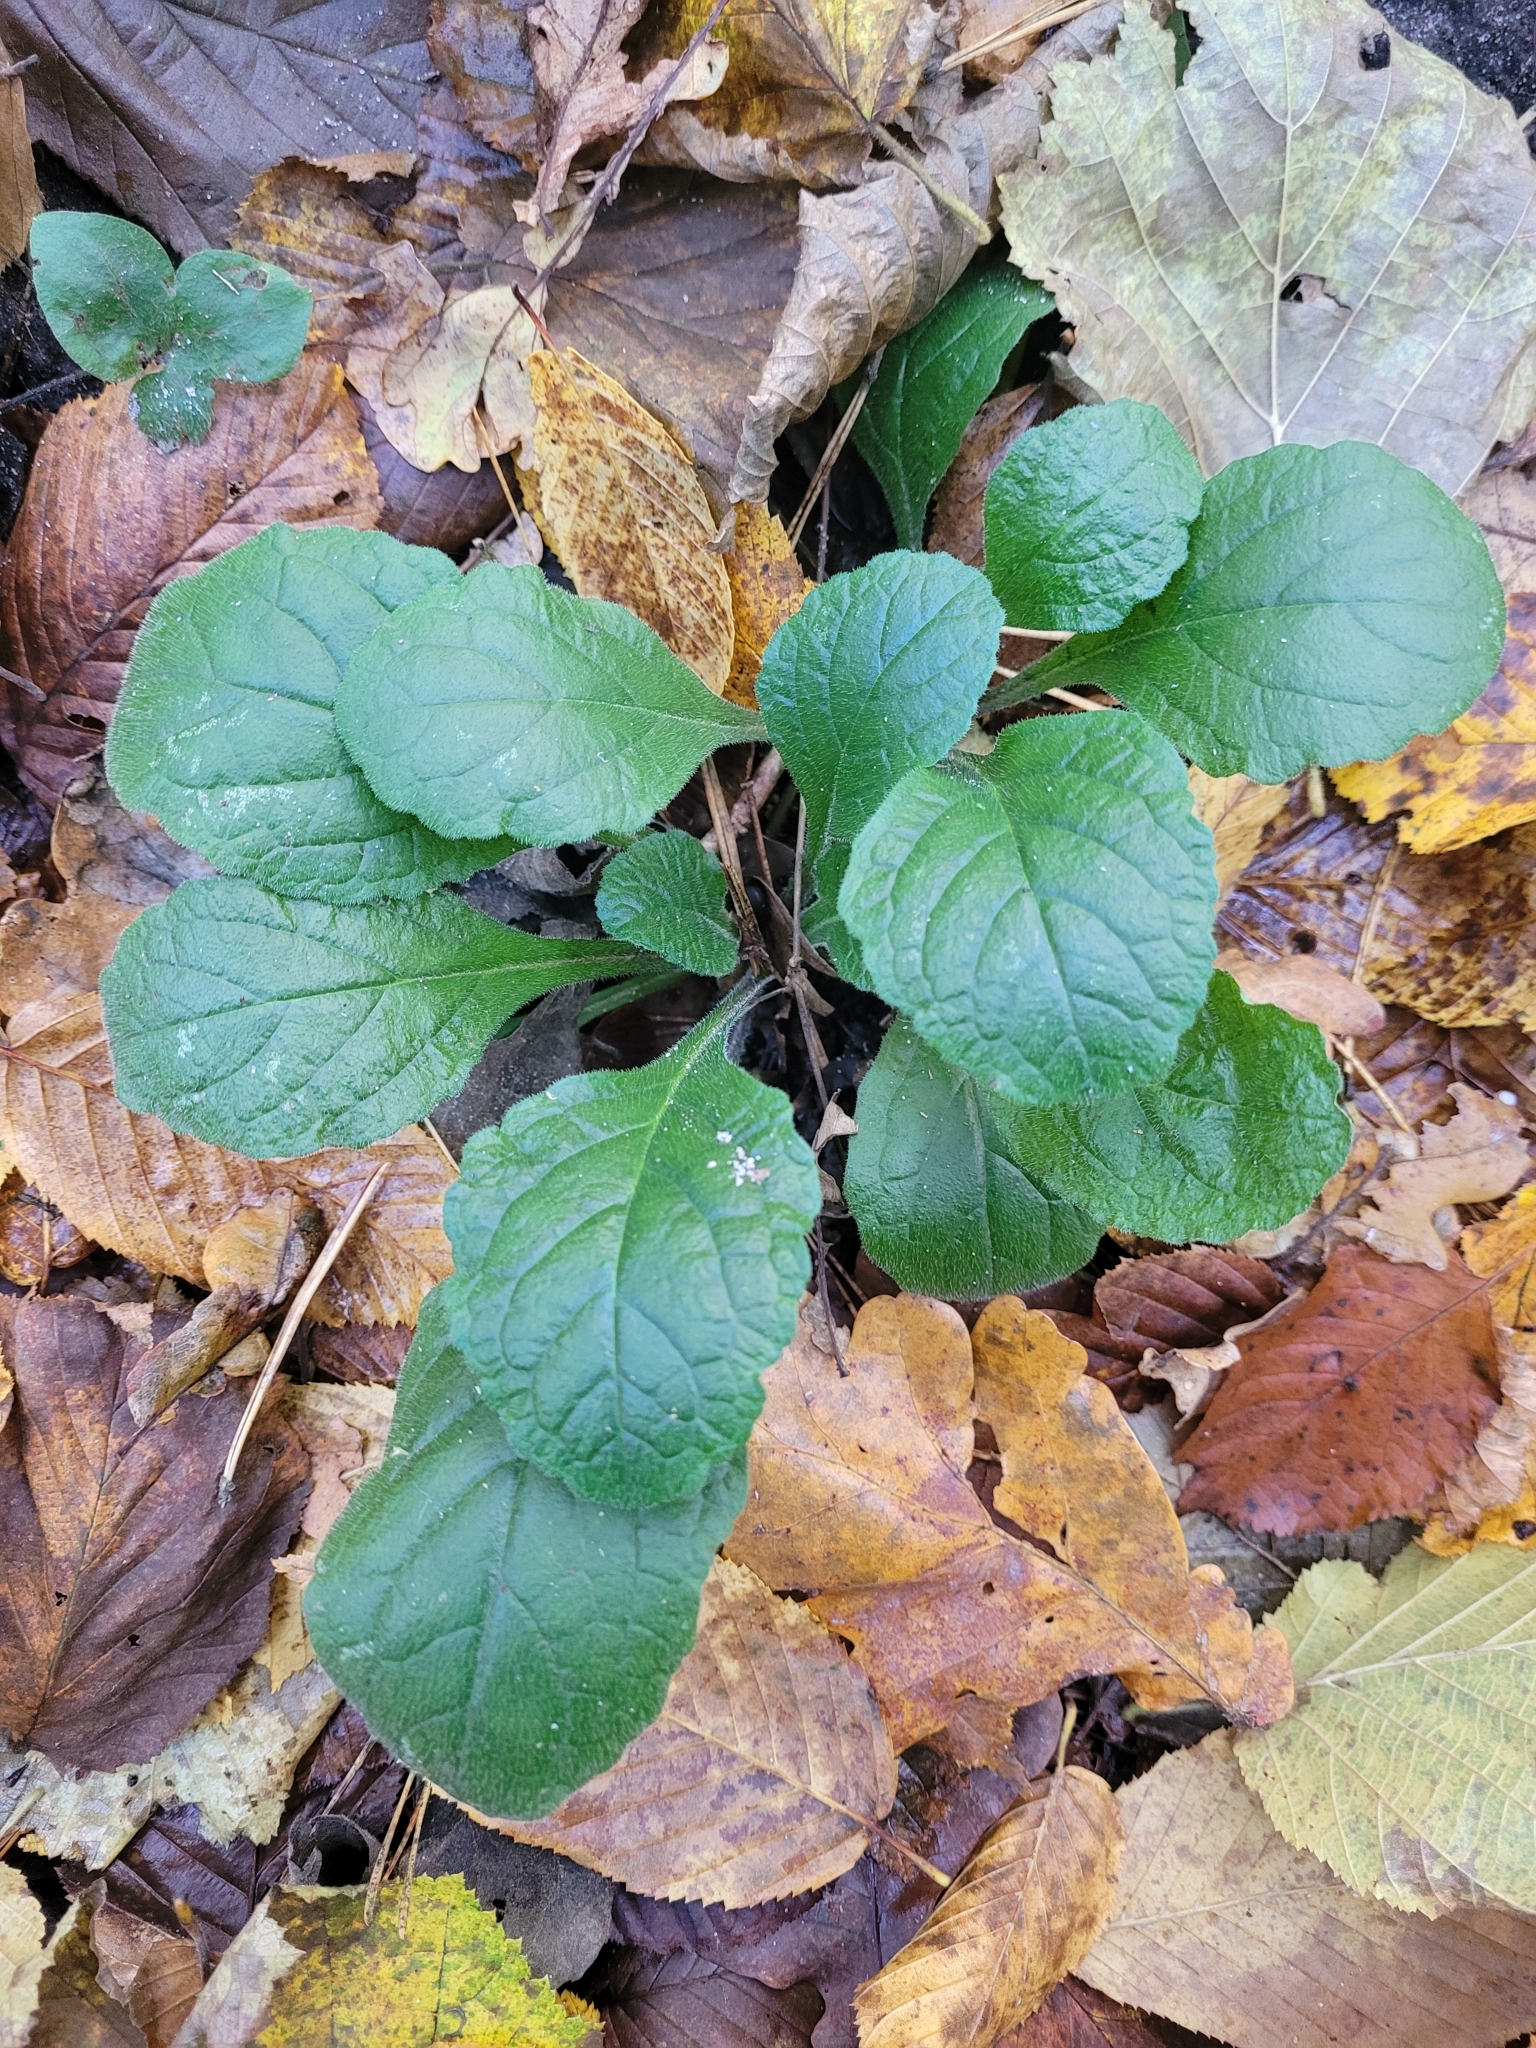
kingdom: Plantae
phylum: Tracheophyta
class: Magnoliopsida
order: Lamiales
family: Lamiaceae
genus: Ajuga
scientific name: Ajuga reptans
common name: Bugle
